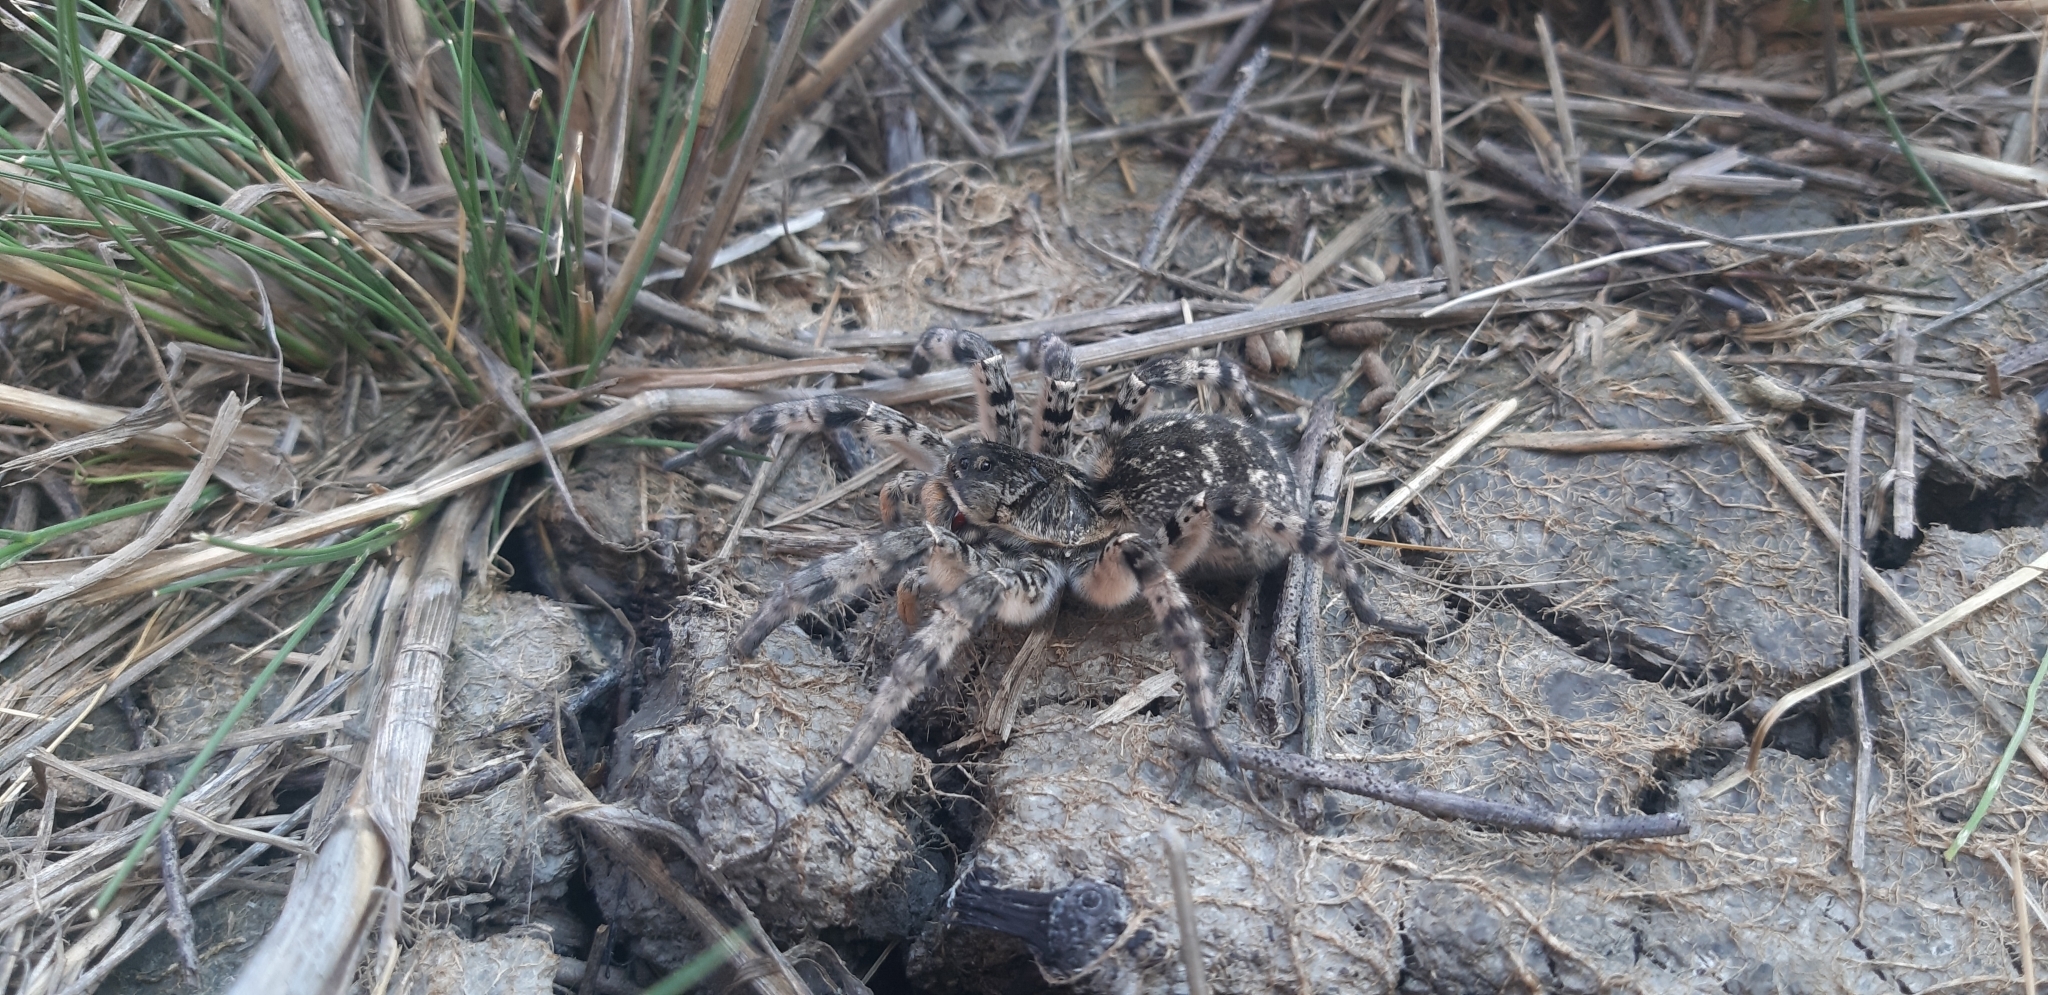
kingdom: Animalia
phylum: Arthropoda
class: Arachnida
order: Araneae
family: Lycosidae
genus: Lycosa
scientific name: Lycosa singoriensis
